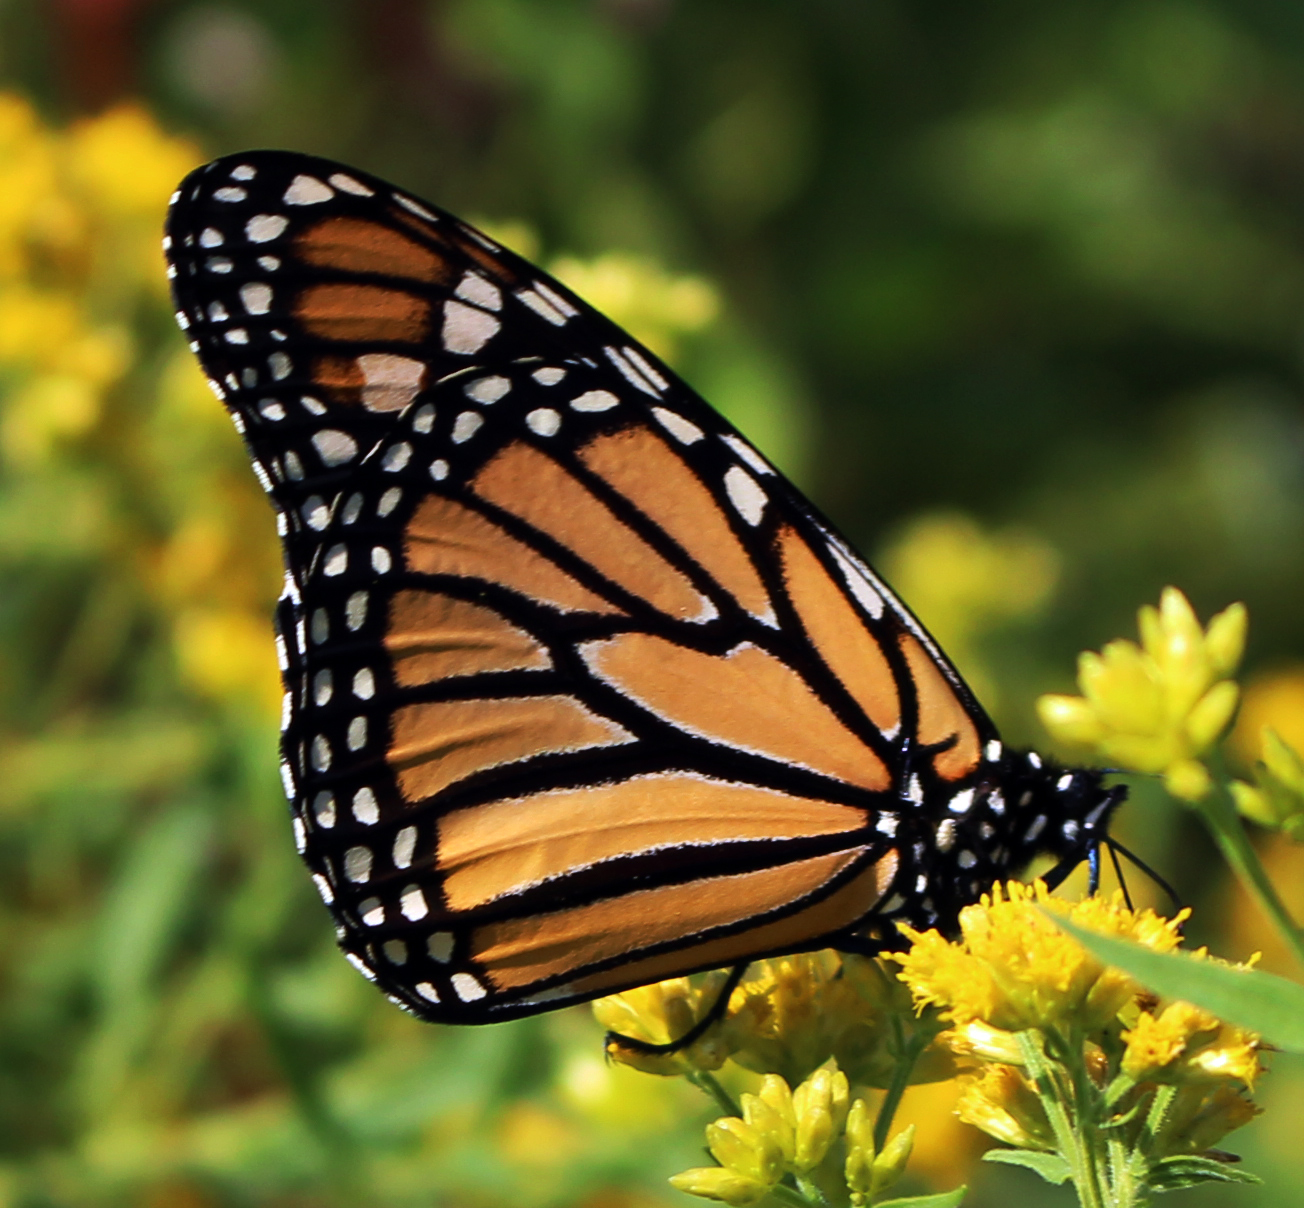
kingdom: Animalia
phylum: Arthropoda
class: Insecta
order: Lepidoptera
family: Nymphalidae
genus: Danaus
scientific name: Danaus plexippus
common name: Monarch
